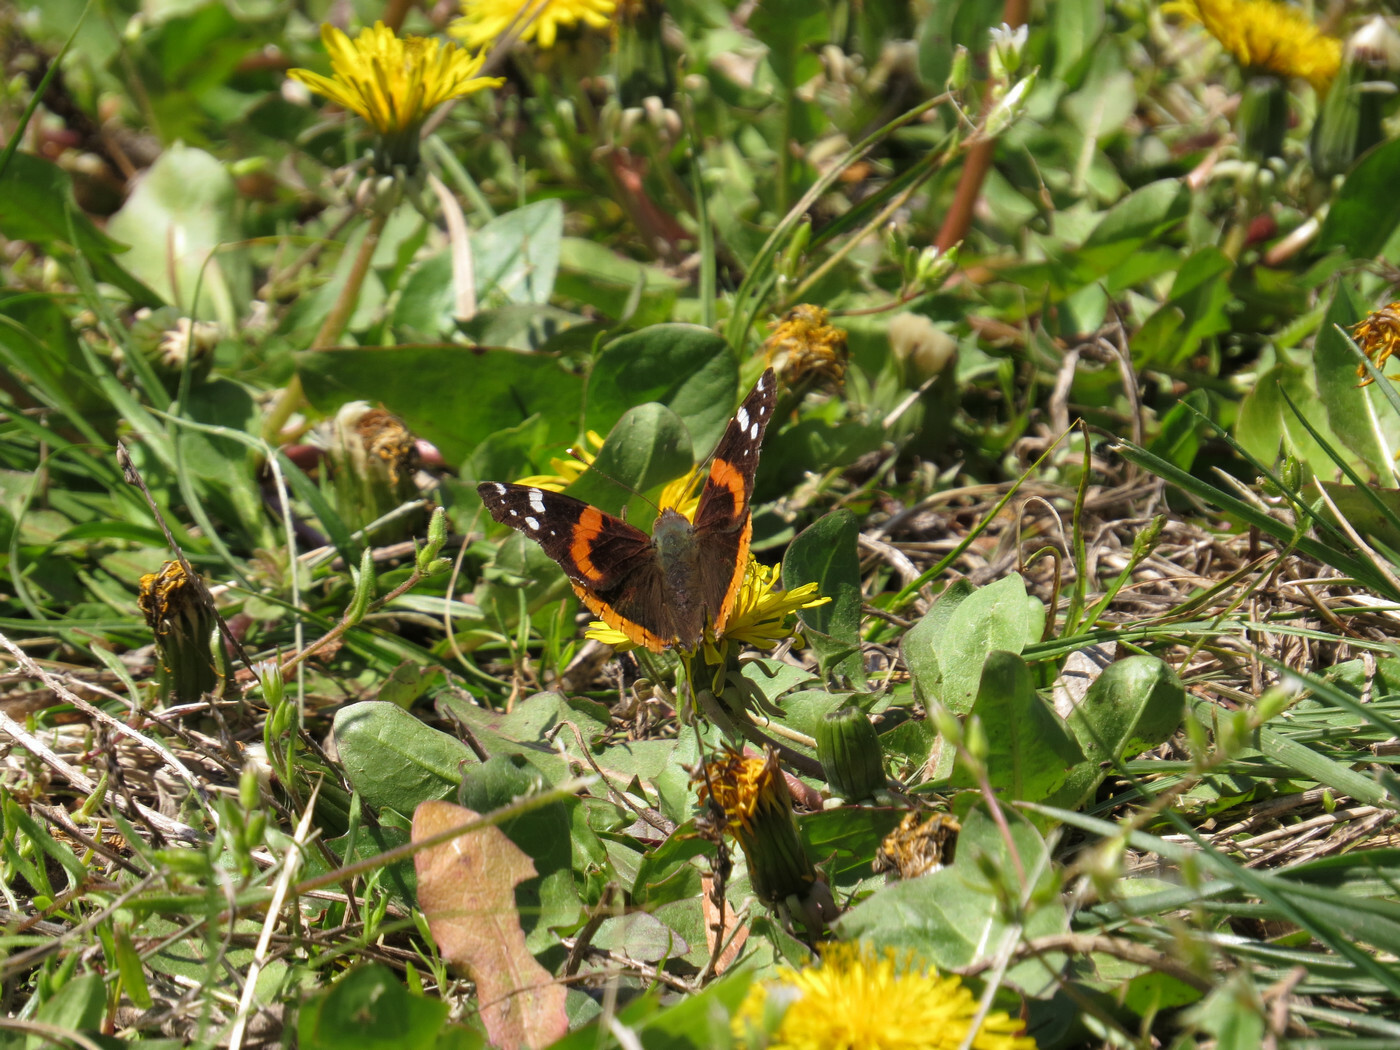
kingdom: Animalia
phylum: Arthropoda
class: Insecta
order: Lepidoptera
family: Nymphalidae
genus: Vanessa
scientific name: Vanessa atalanta
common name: Red admiral
